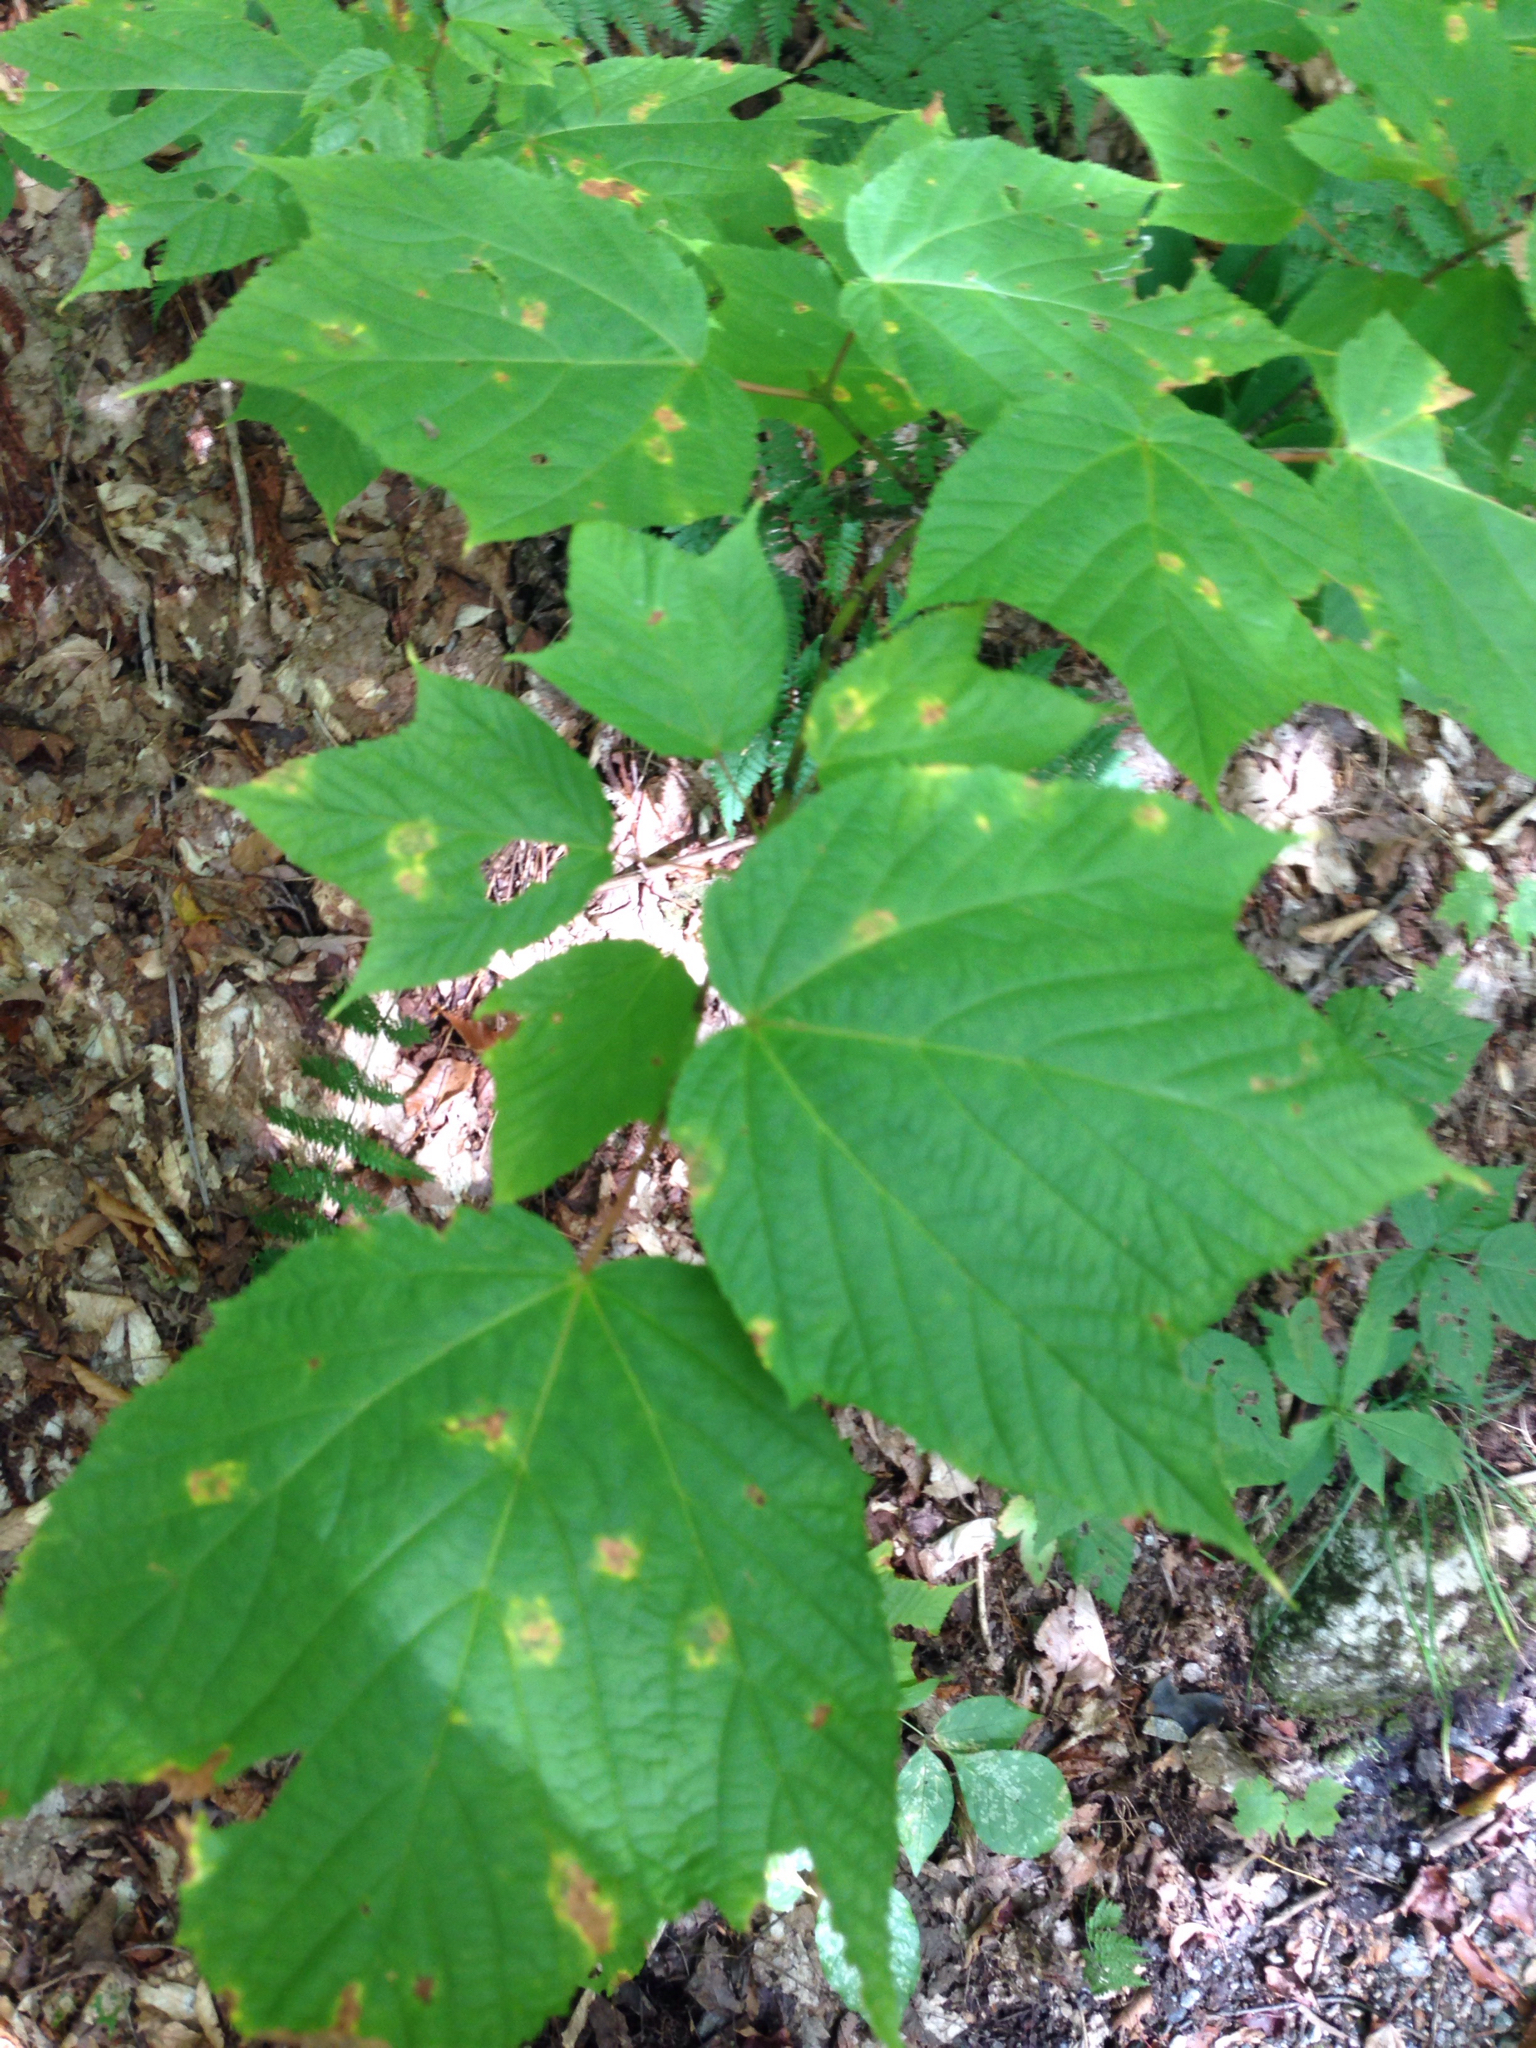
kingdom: Plantae
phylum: Tracheophyta
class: Magnoliopsida
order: Sapindales
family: Sapindaceae
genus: Acer
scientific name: Acer pensylvanicum
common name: Moosewood
